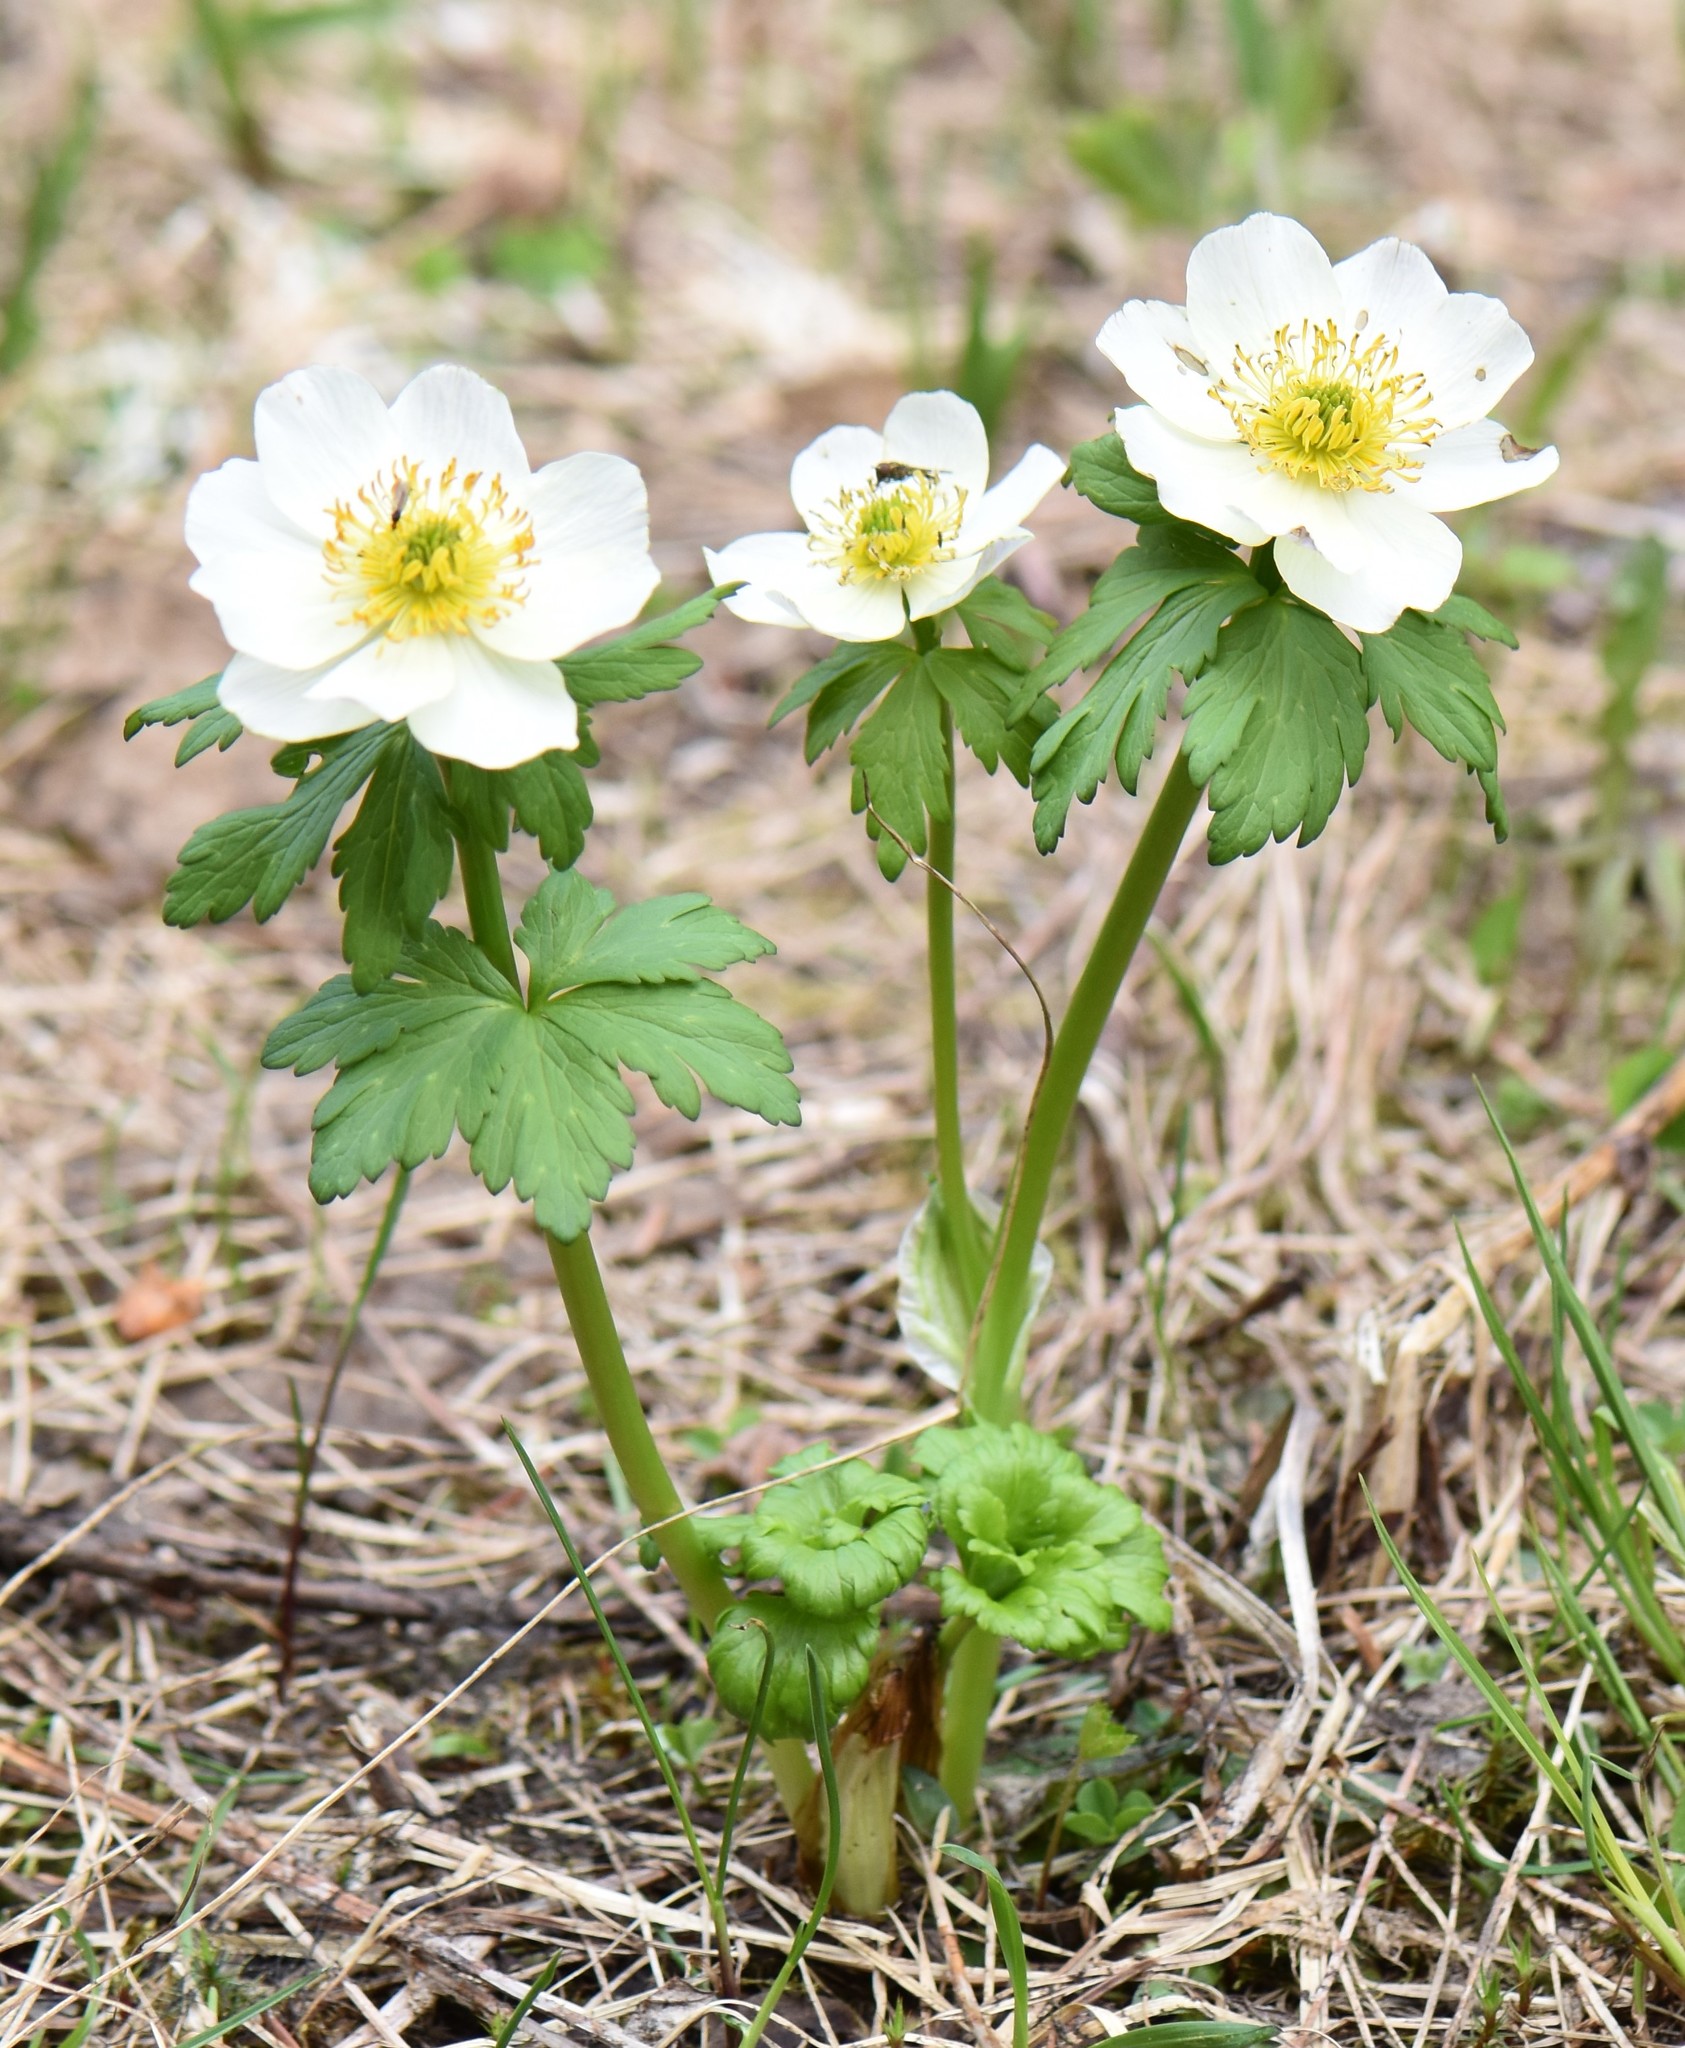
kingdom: Plantae
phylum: Tracheophyta
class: Magnoliopsida
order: Ranunculales
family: Ranunculaceae
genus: Trollius
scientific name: Trollius laxus
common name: American globeflower
